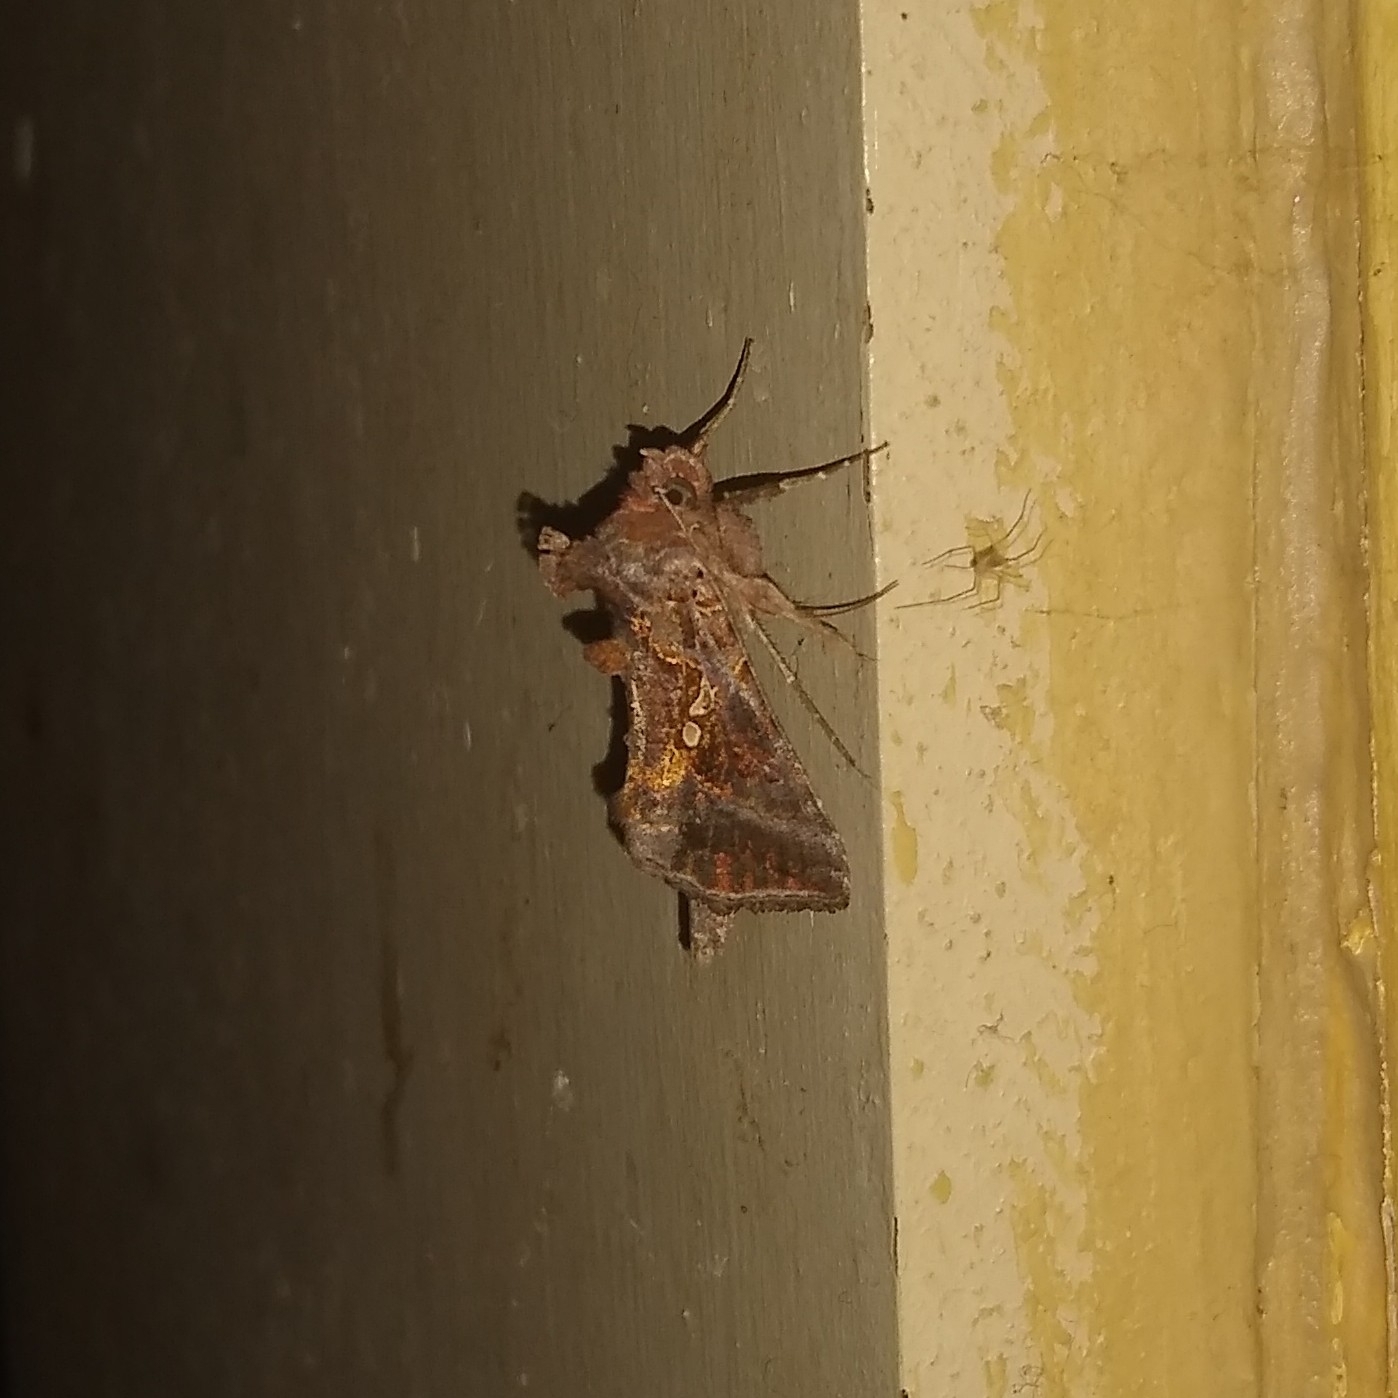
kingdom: Animalia
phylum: Arthropoda
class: Insecta
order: Lepidoptera
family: Noctuidae
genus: Autographa
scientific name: Autographa precationis
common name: Common looper moth
